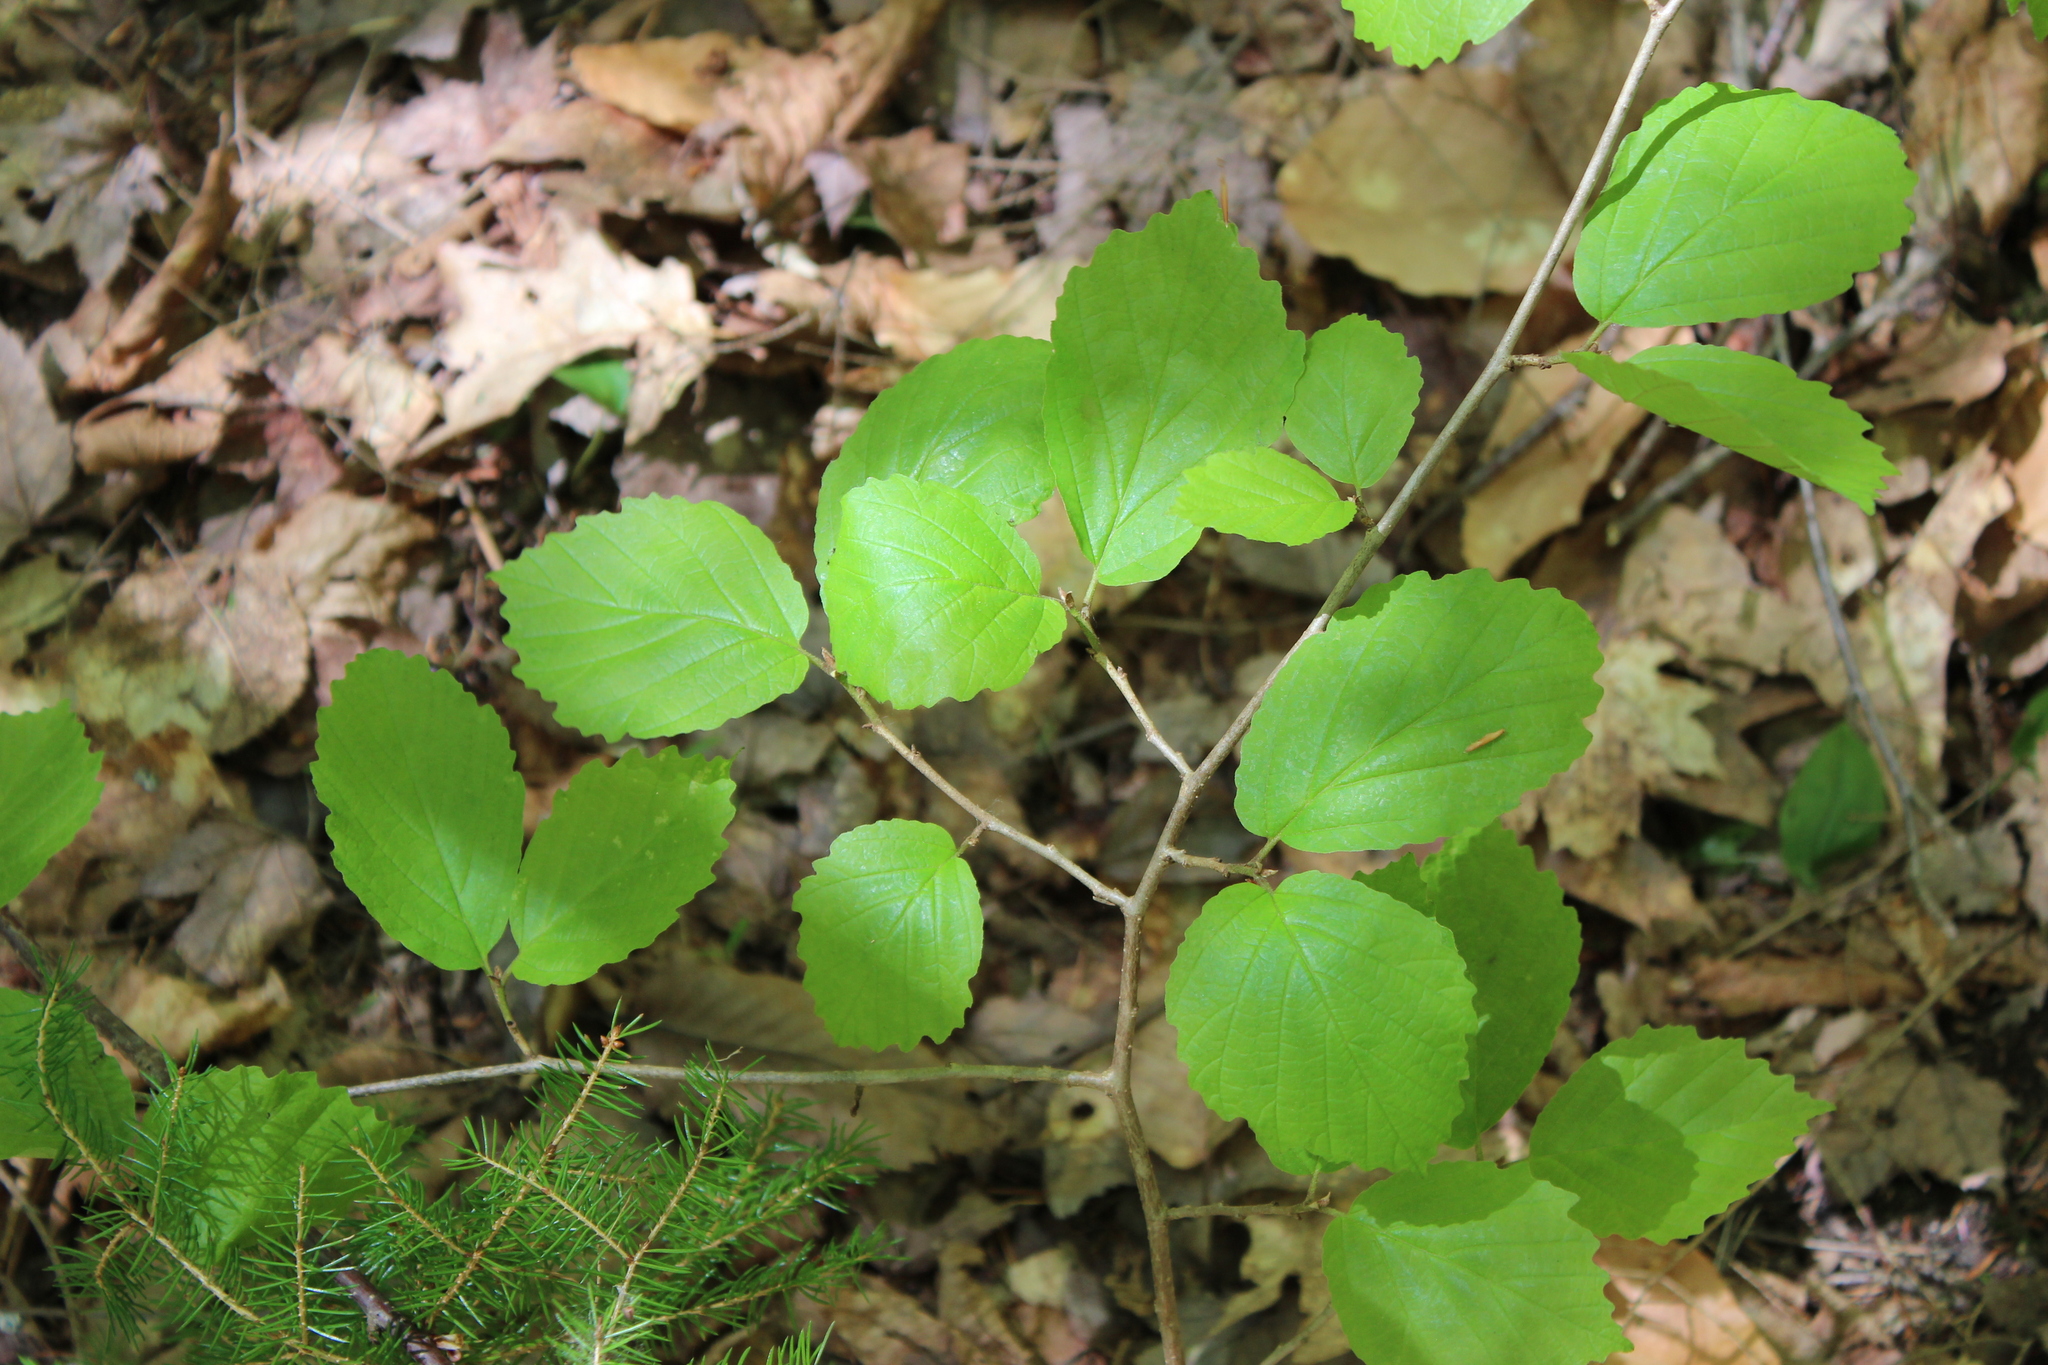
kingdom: Plantae
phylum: Tracheophyta
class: Magnoliopsida
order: Saxifragales
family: Hamamelidaceae
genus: Hamamelis
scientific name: Hamamelis virginiana
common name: Witch-hazel
